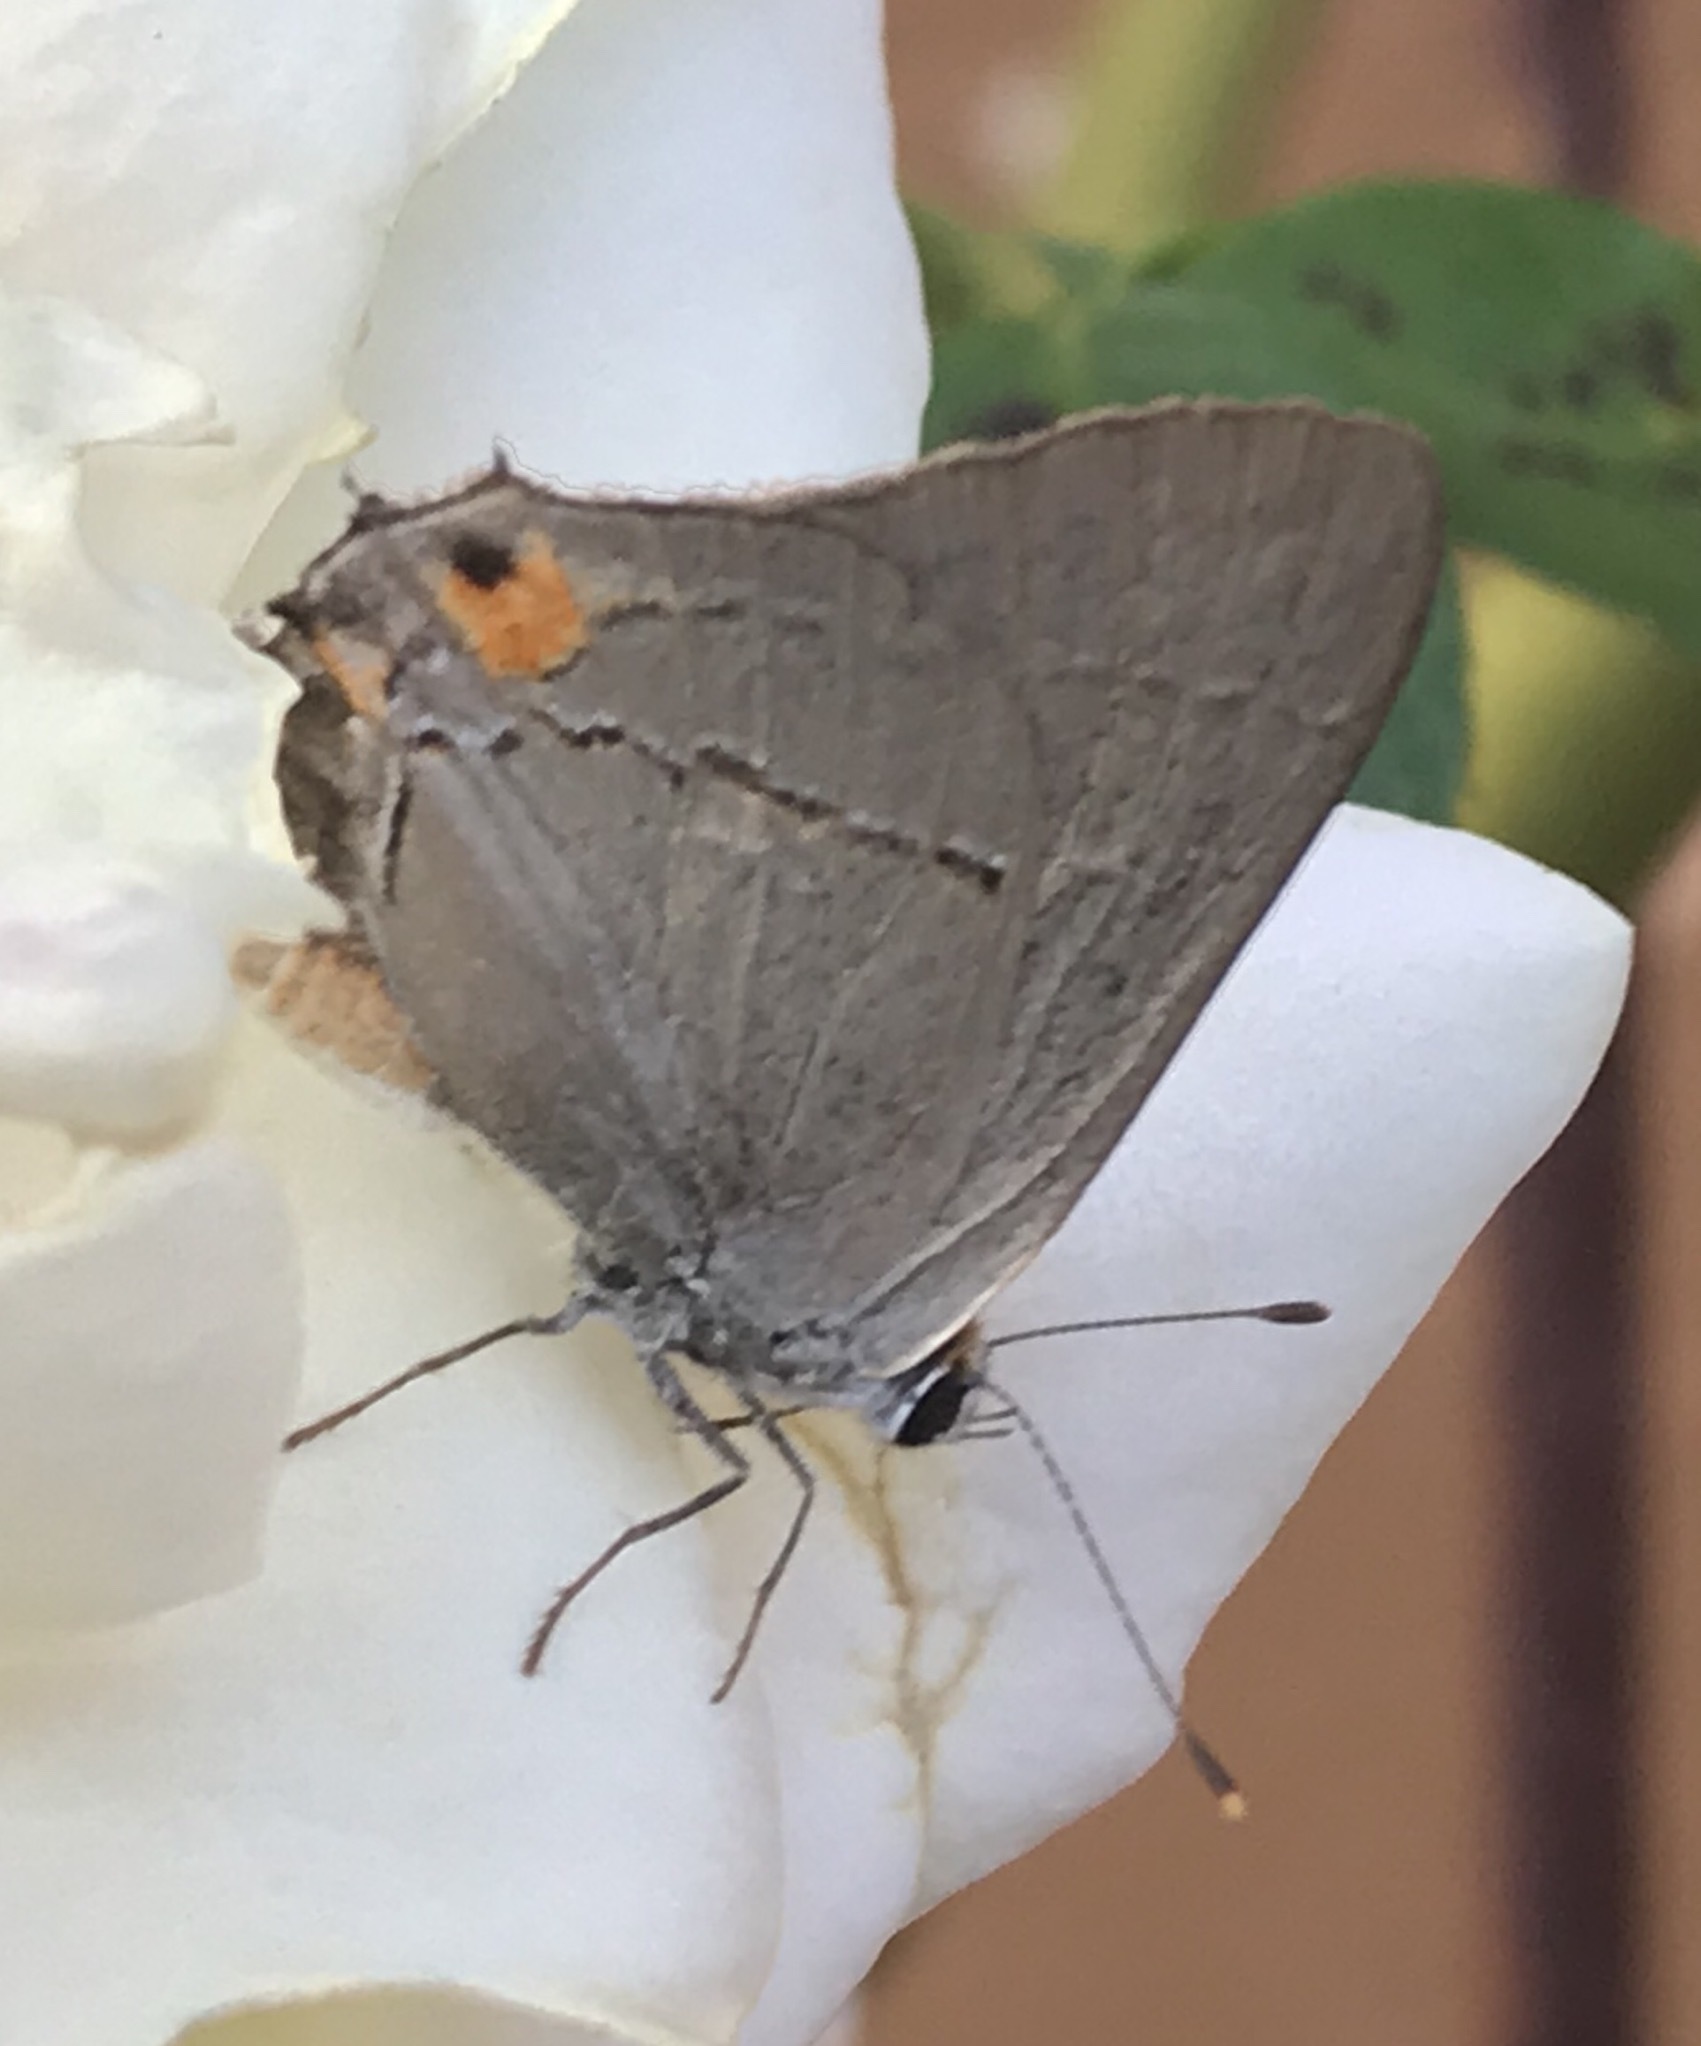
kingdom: Animalia
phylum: Arthropoda
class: Insecta
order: Lepidoptera
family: Lycaenidae
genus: Strymon
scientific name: Strymon melinus
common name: Gray hairstreak
